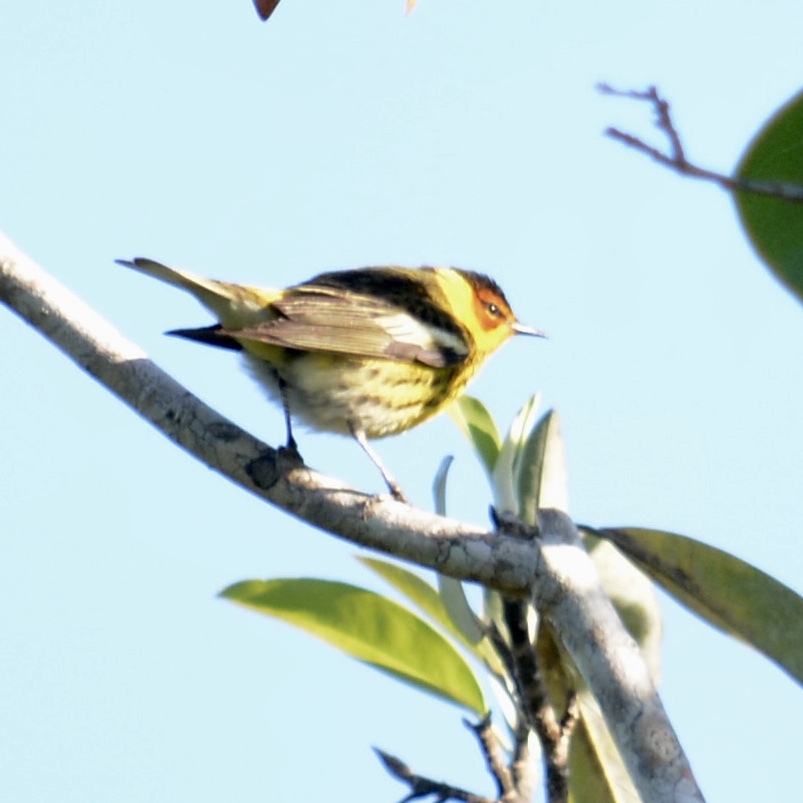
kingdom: Animalia
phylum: Chordata
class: Aves
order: Passeriformes
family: Parulidae
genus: Setophaga
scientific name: Setophaga tigrina
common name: Cape may warbler
